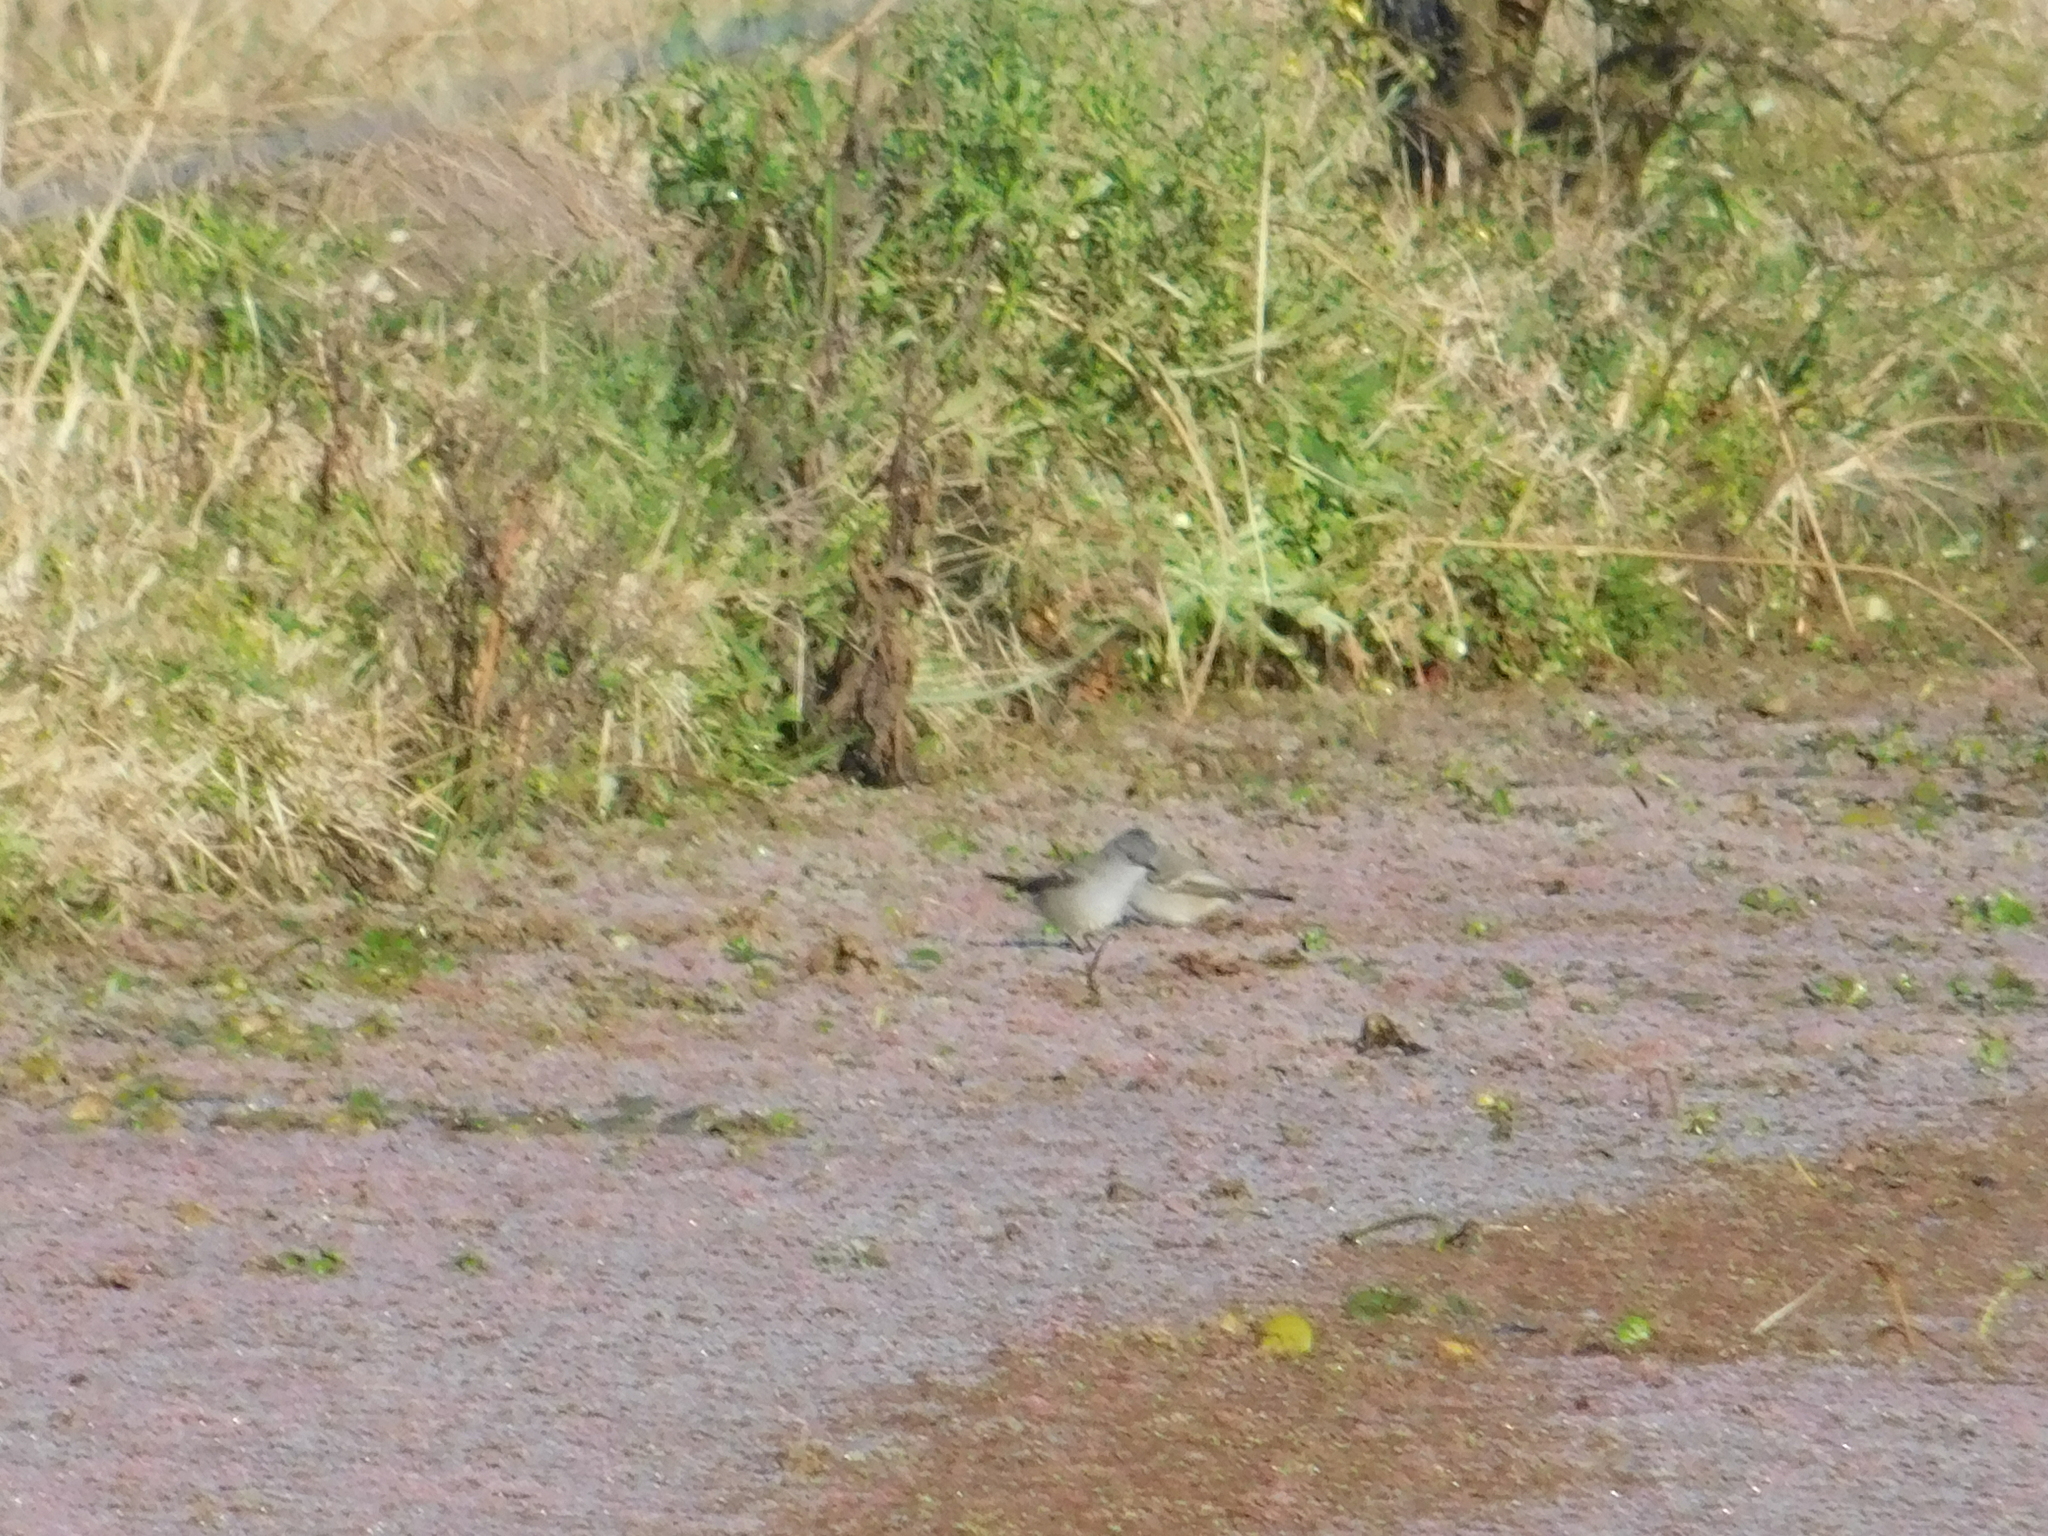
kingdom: Animalia
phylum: Chordata
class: Aves
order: Passeriformes
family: Tyrannidae
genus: Serpophaga
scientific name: Serpophaga nigricans
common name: Sooty tyrannulet
